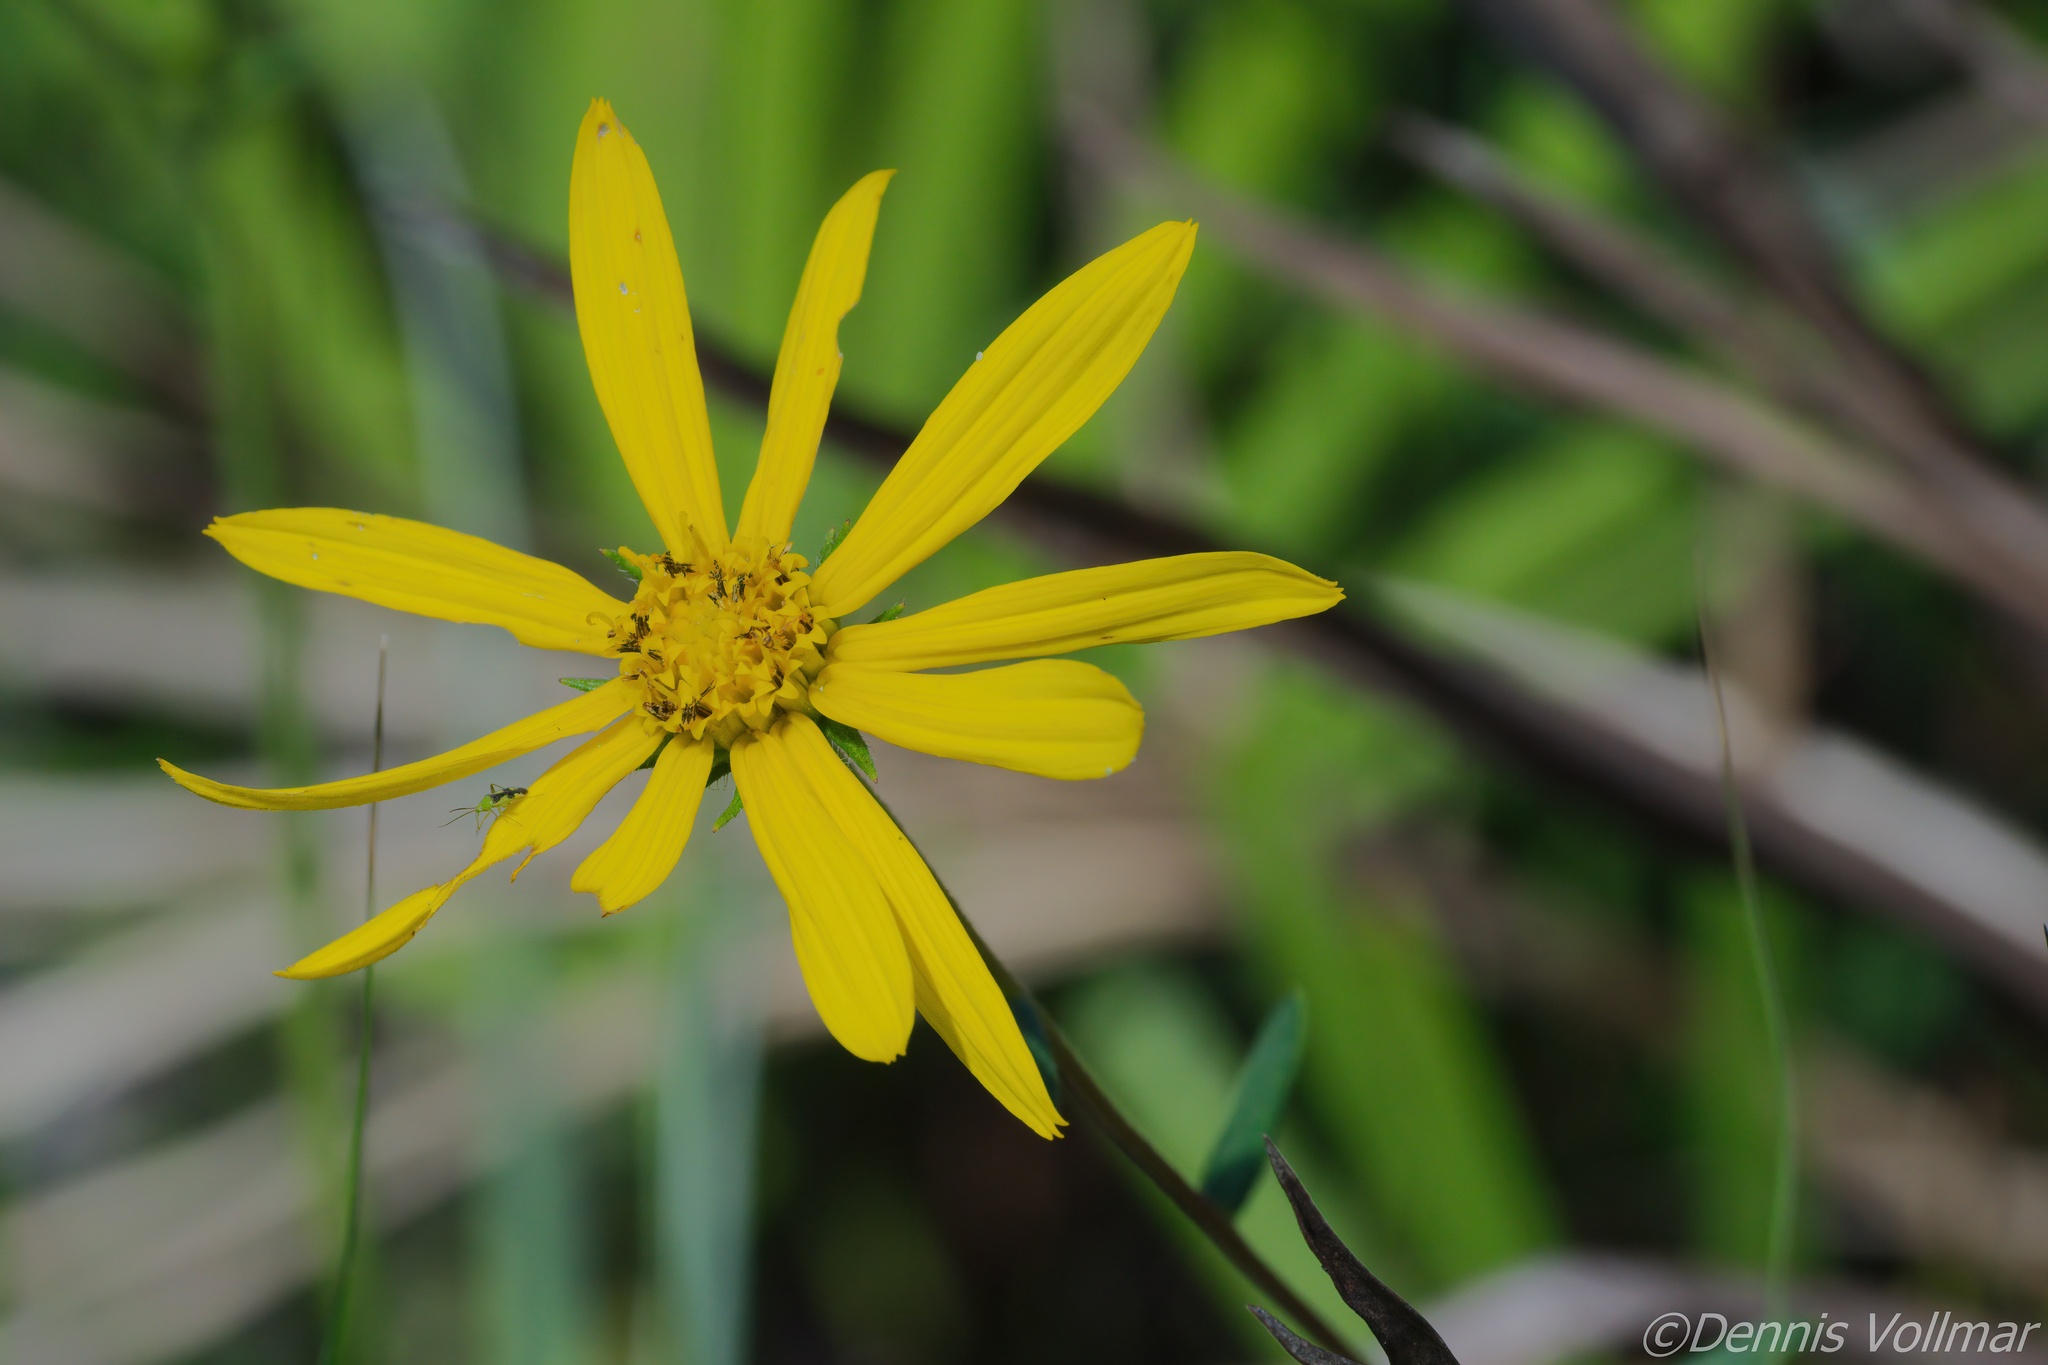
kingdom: Plantae
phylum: Tracheophyta
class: Magnoliopsida
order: Asterales
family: Asteraceae
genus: Phoebanthus
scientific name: Phoebanthus grandiflora
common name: Florida false sunflower
